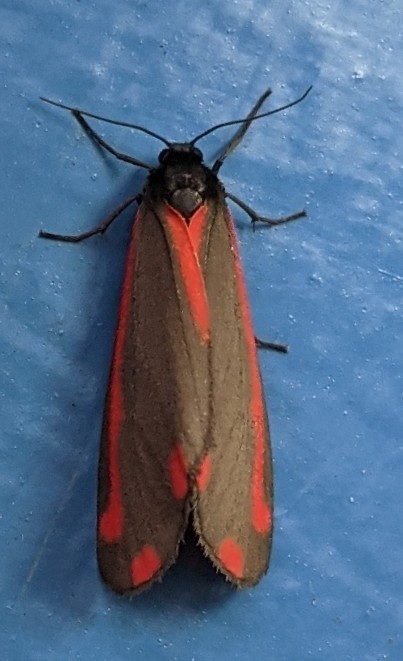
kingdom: Animalia
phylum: Arthropoda
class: Insecta
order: Lepidoptera
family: Erebidae
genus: Tyria
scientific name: Tyria jacobaeae
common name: Cinnabar
